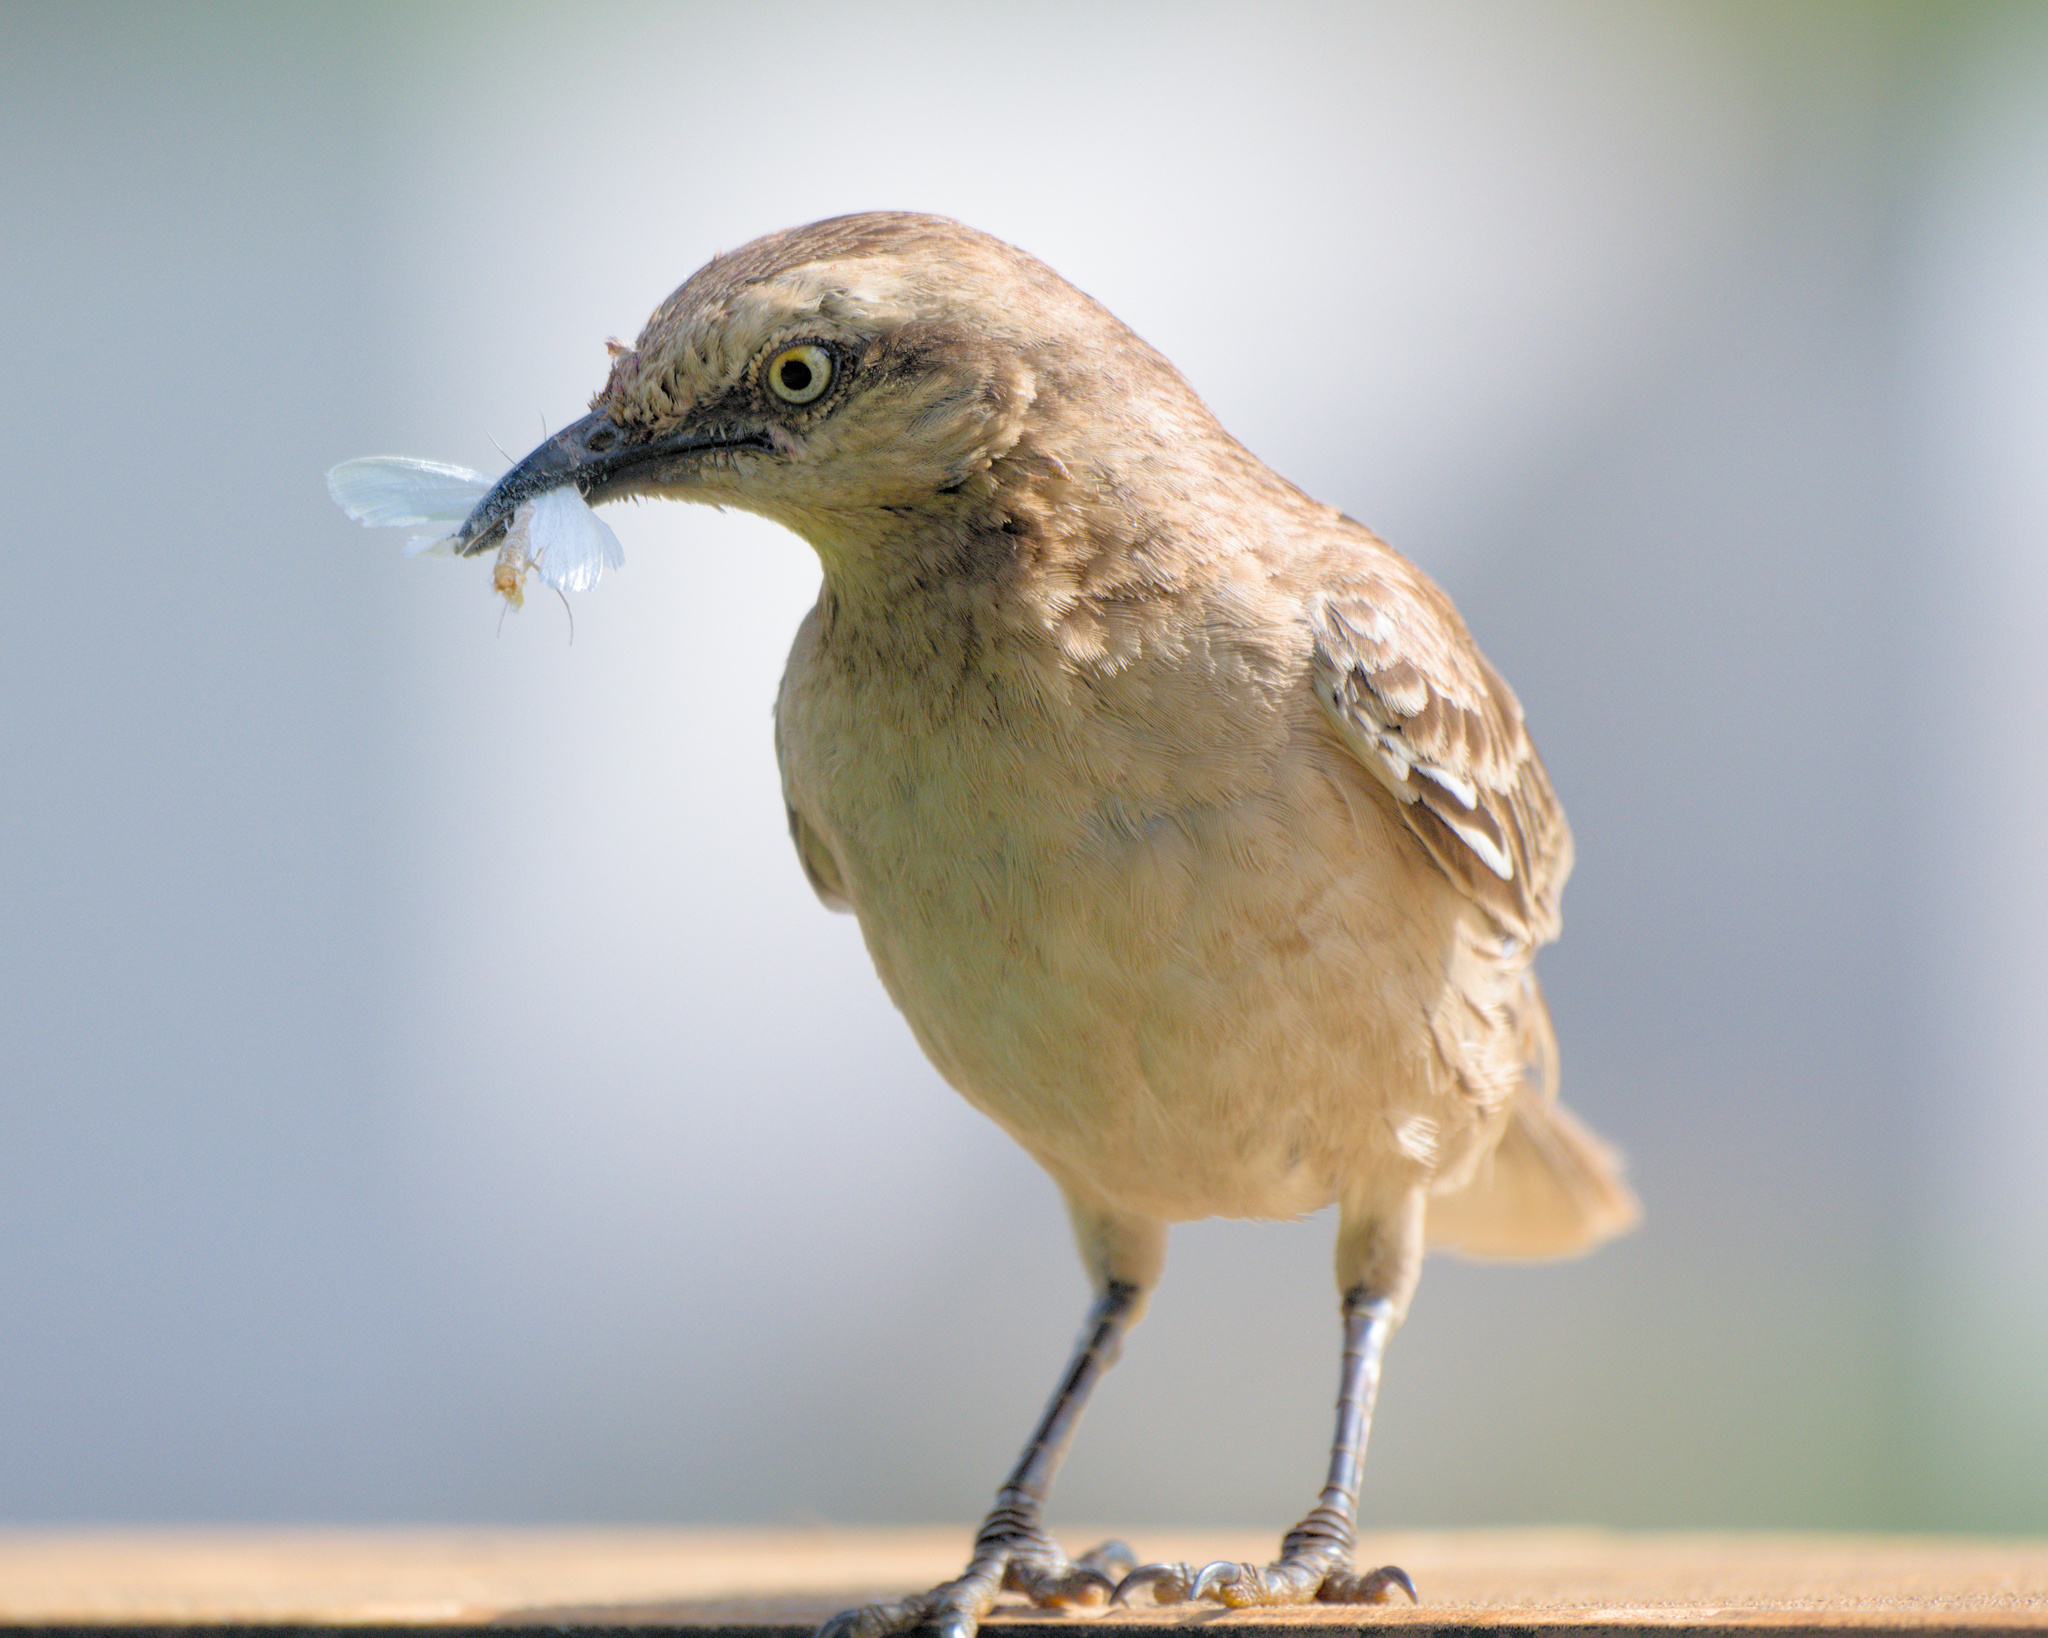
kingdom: Animalia
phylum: Chordata
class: Aves
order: Passeriformes
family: Mimidae
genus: Mimus
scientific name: Mimus saturninus
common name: Chalk-browed mockingbird
